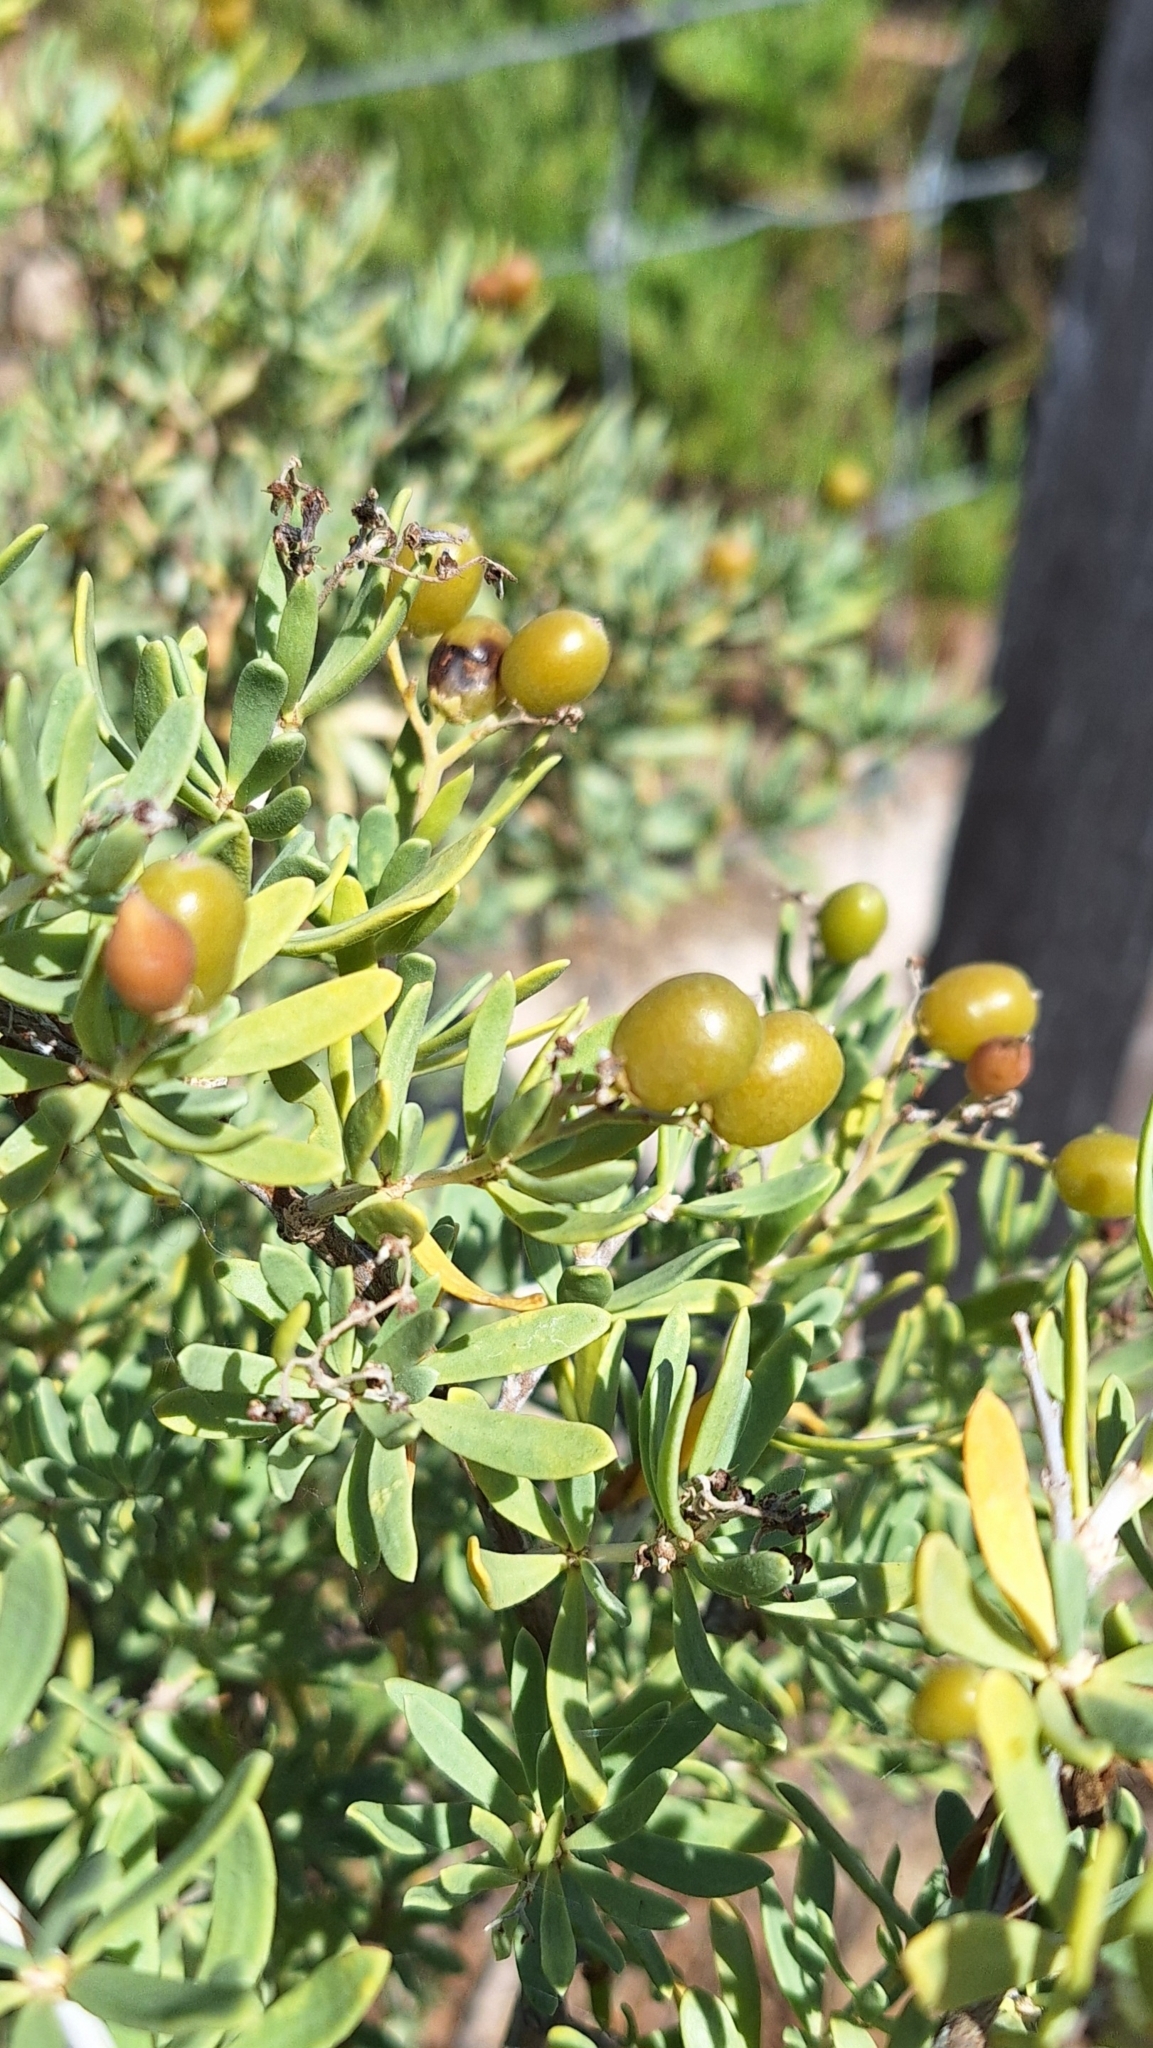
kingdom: Plantae
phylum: Tracheophyta
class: Magnoliopsida
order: Sapindales
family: Nitrariaceae
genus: Nitraria
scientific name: Nitraria billardierei
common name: Dillonbush
